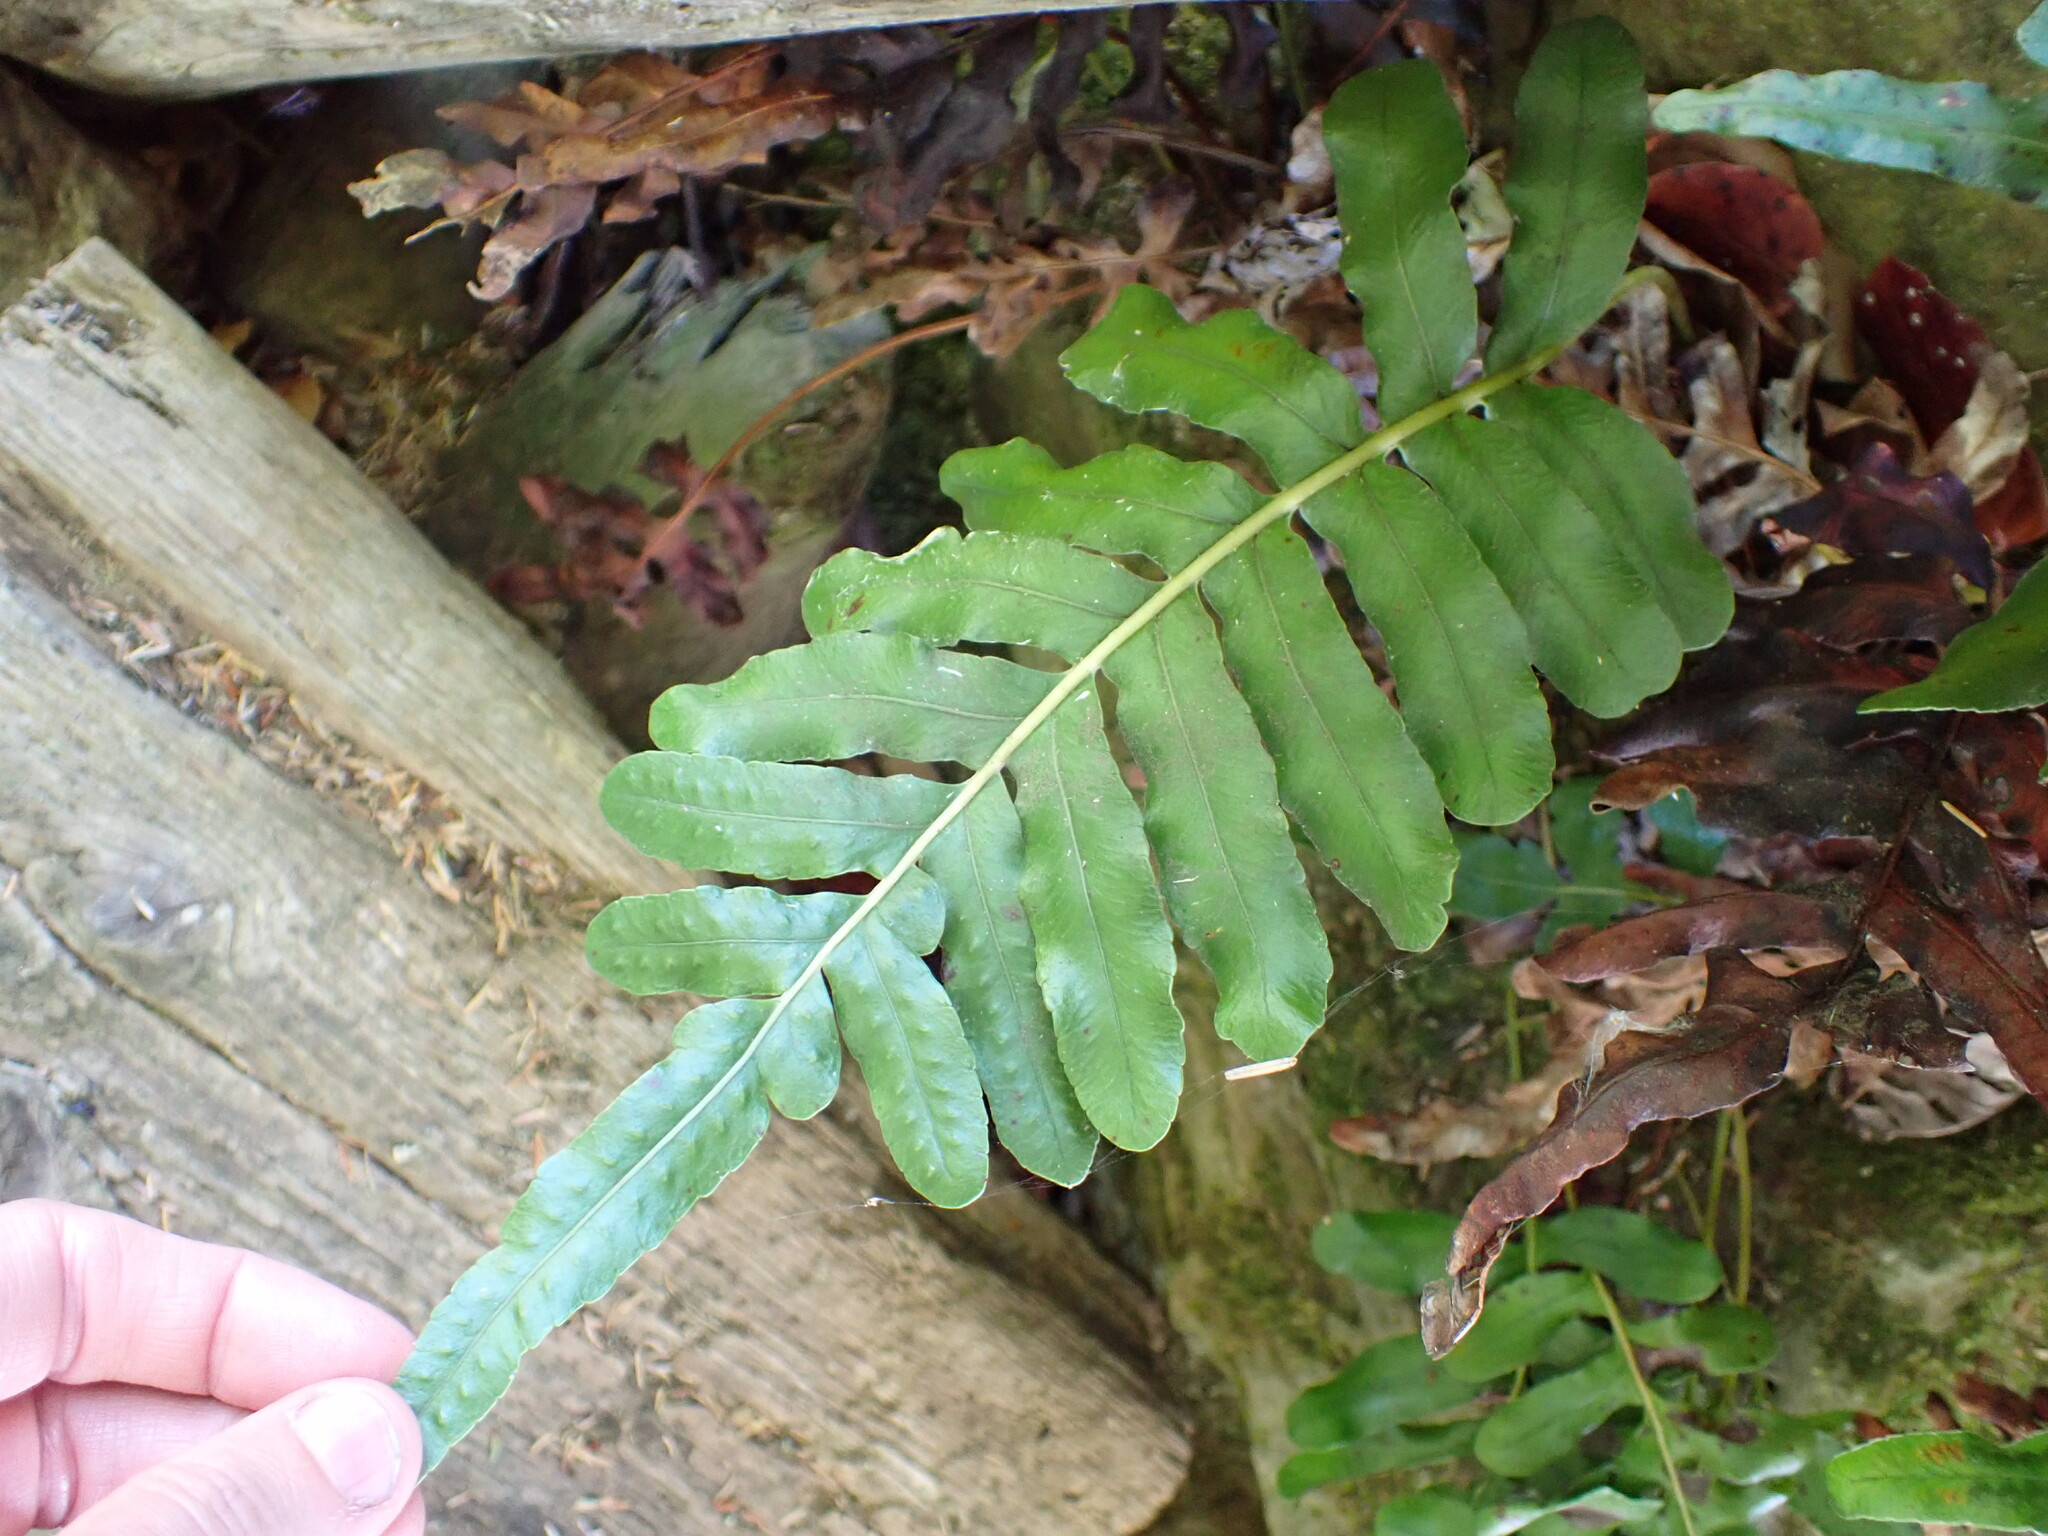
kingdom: Plantae
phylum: Tracheophyta
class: Polypodiopsida
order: Polypodiales
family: Polypodiaceae
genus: Polypodium
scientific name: Polypodium scouleri
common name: Scouler's polypody
